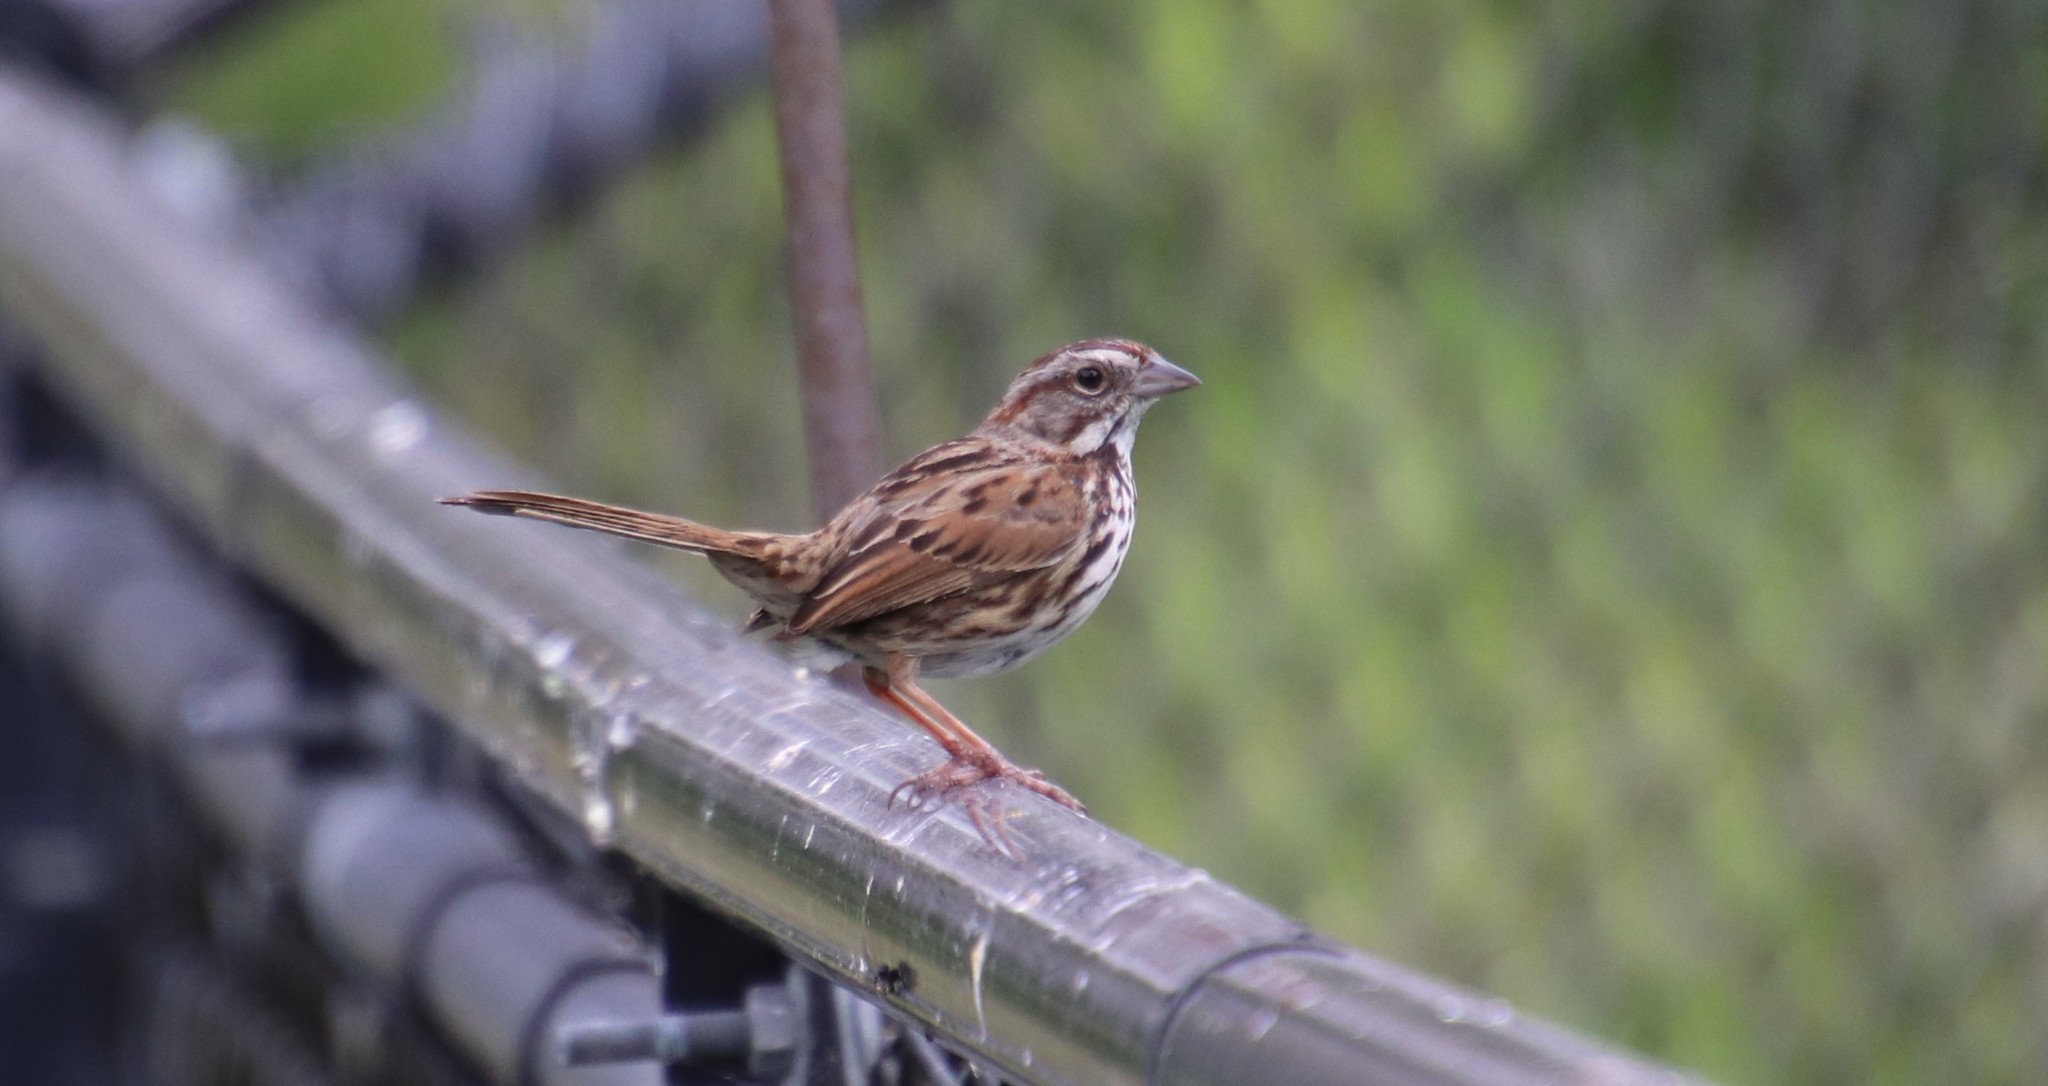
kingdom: Animalia
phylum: Chordata
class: Aves
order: Passeriformes
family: Passerellidae
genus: Melospiza
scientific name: Melospiza melodia
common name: Song sparrow
